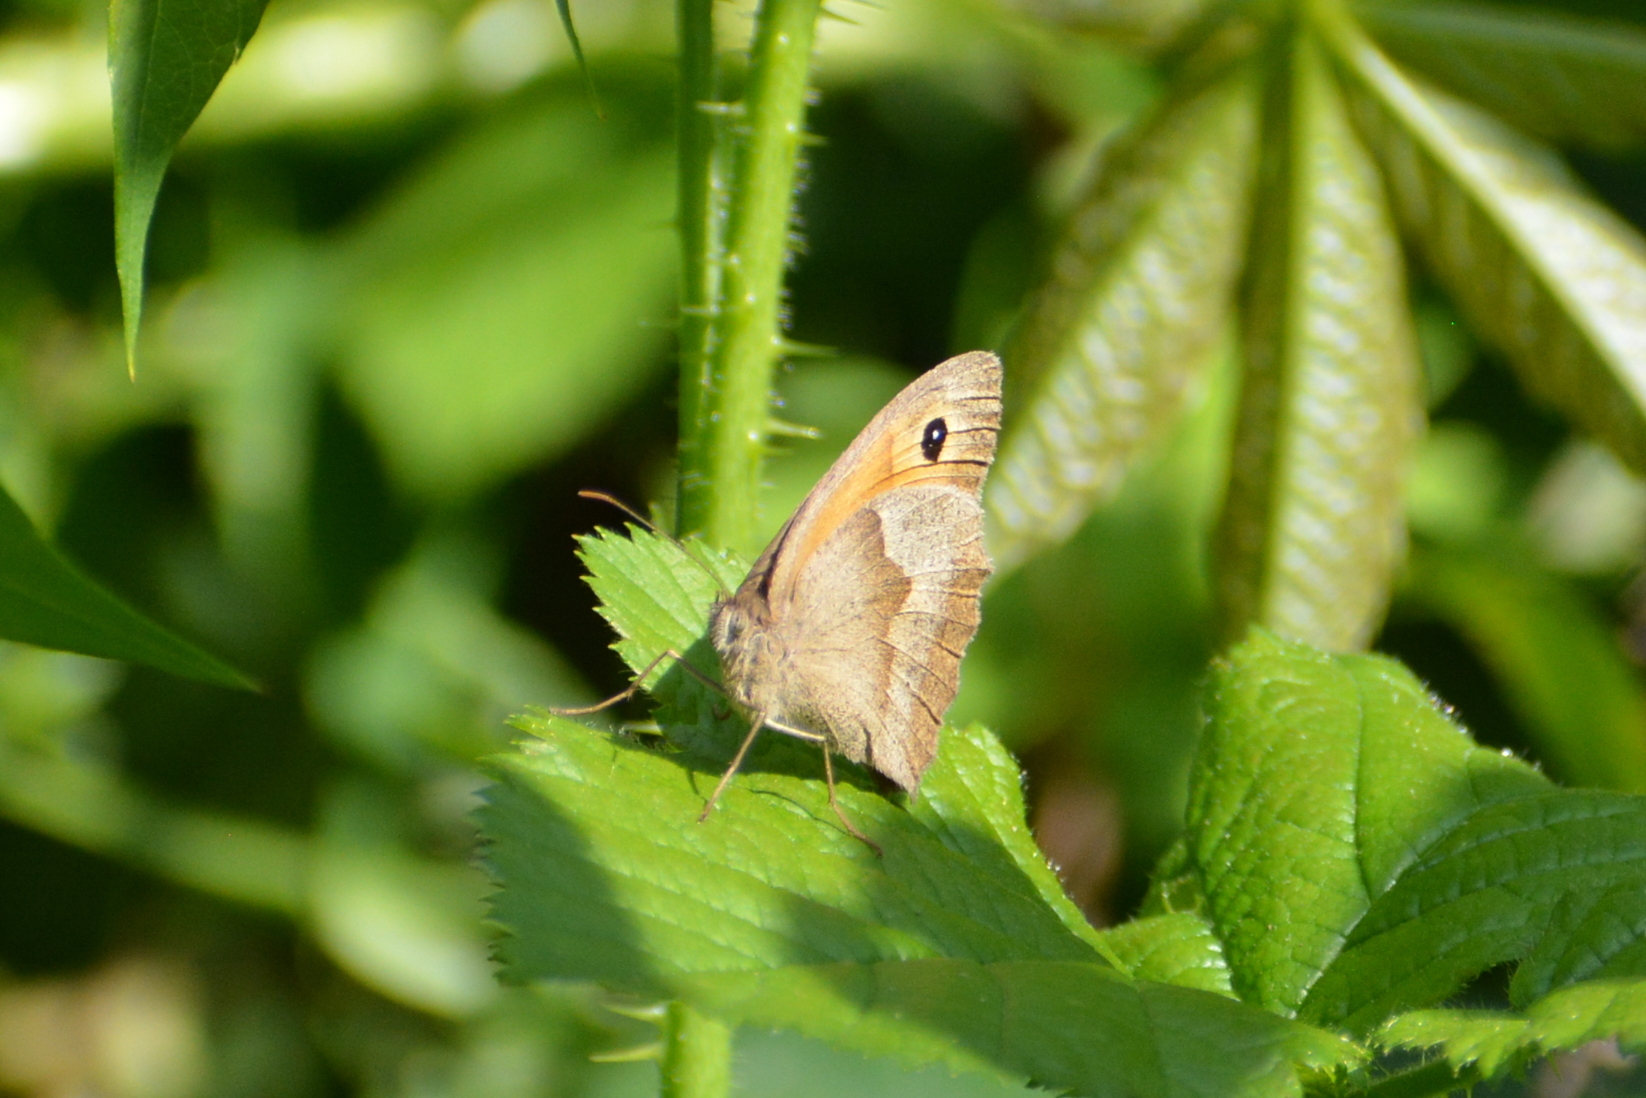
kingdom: Animalia
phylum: Arthropoda
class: Insecta
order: Lepidoptera
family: Nymphalidae
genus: Maniola
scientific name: Maniola jurtina
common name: Meadow brown
